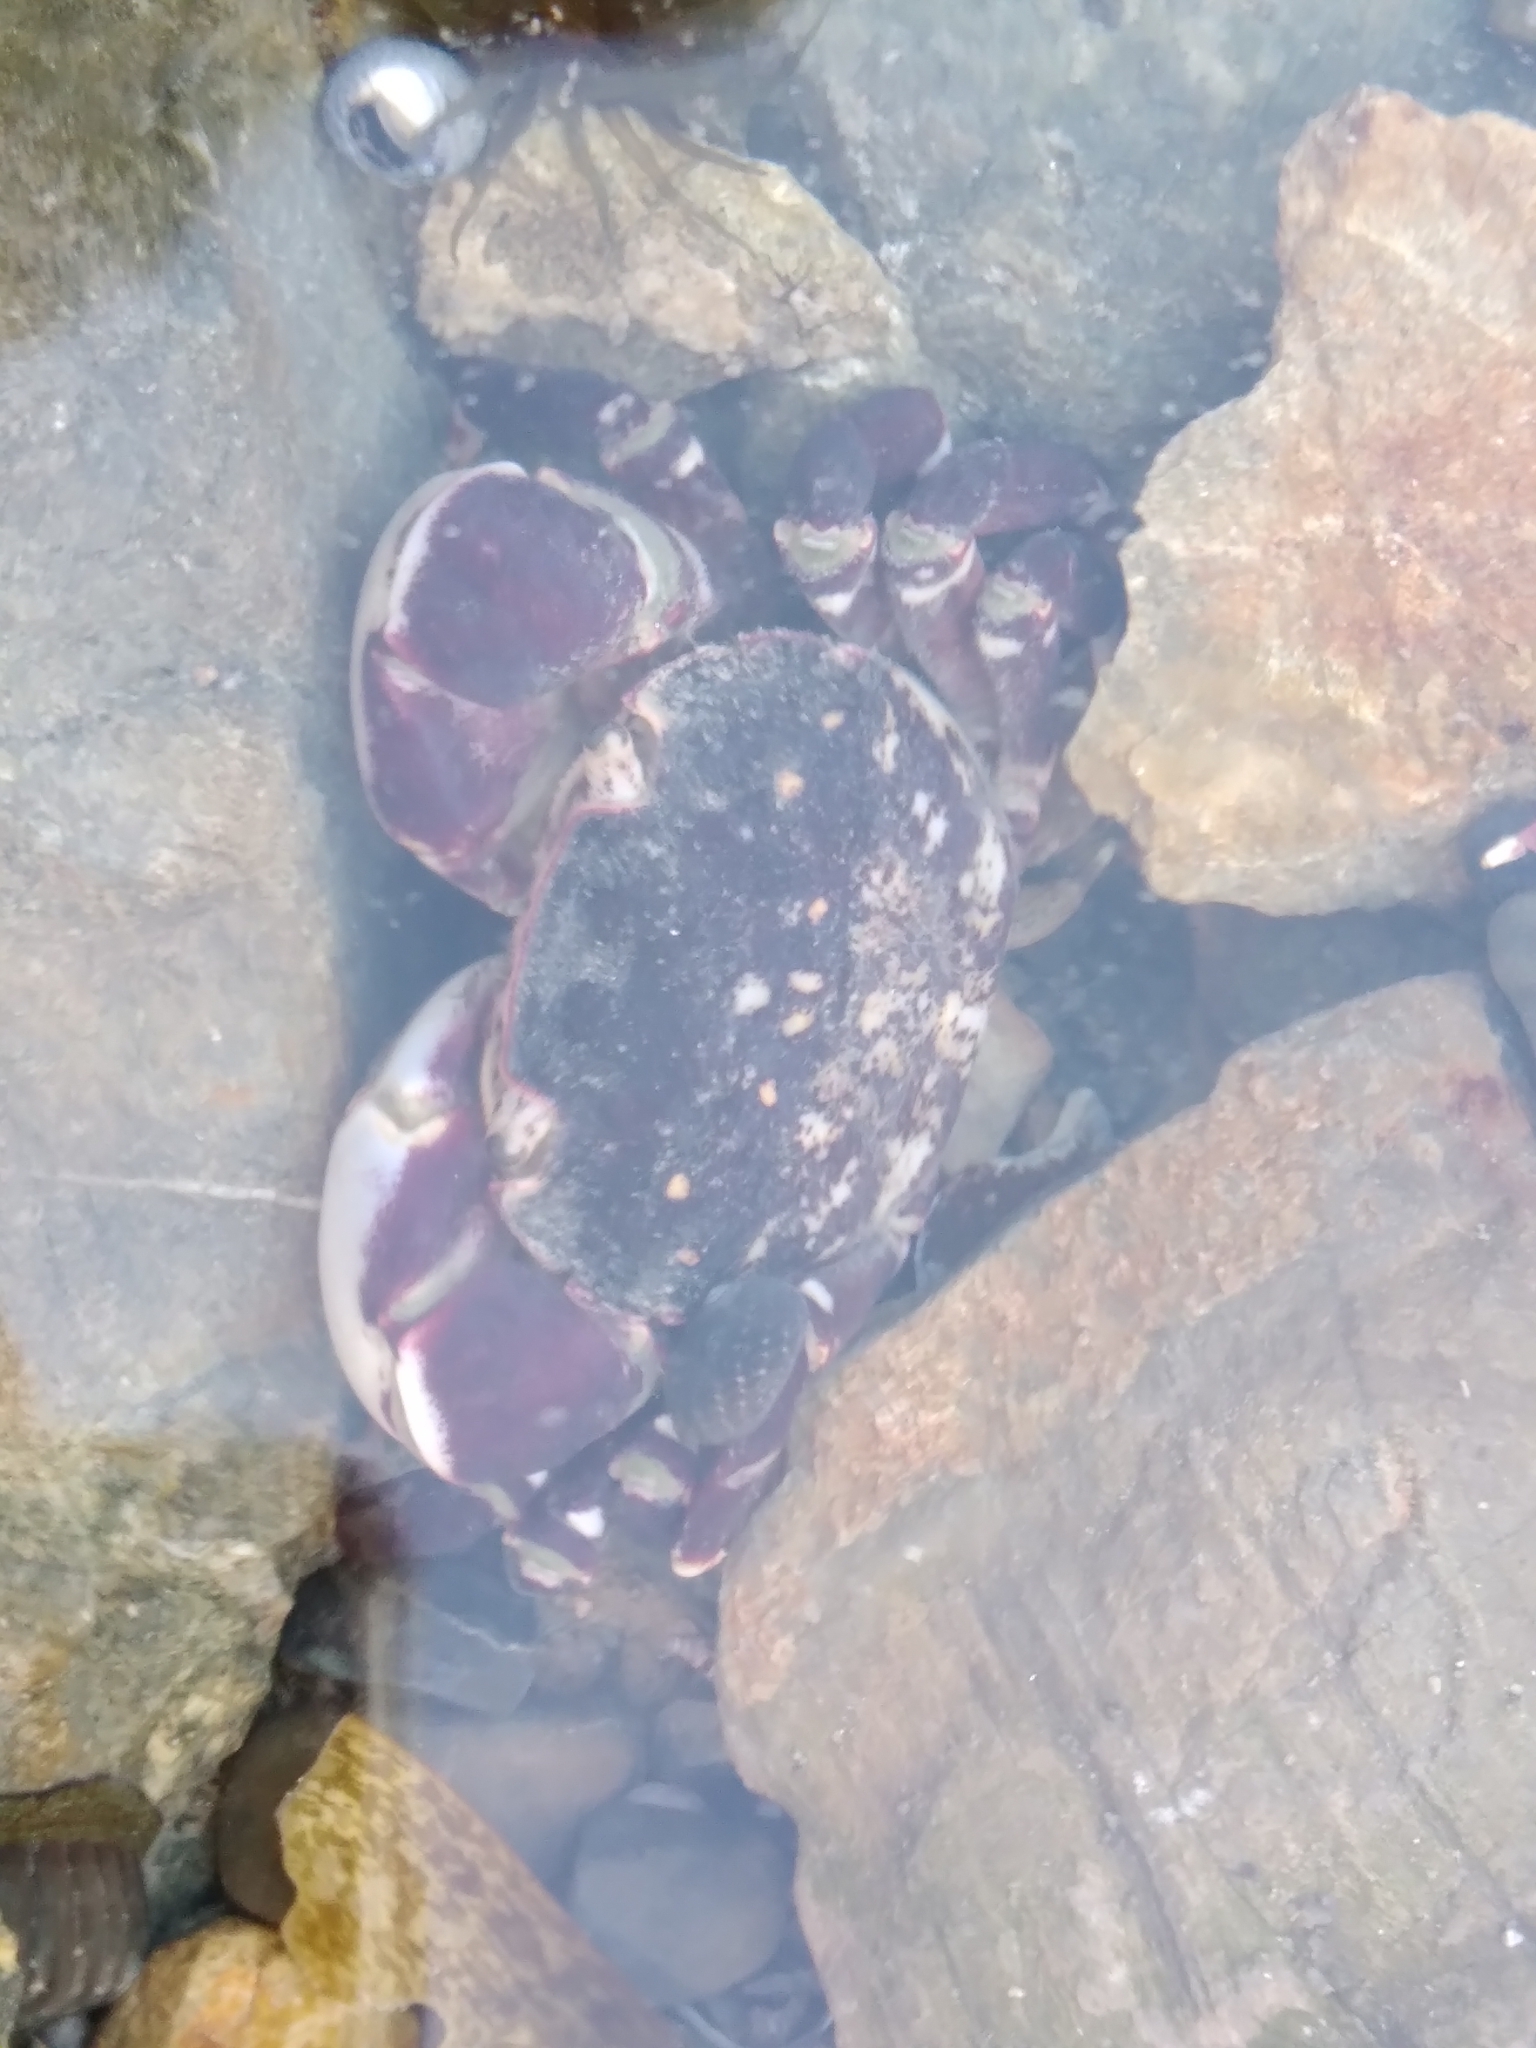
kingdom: Animalia
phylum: Arthropoda
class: Malacostraca
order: Decapoda
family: Varunidae
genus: Hemigrapsus
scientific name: Hemigrapsus sexdentatus
